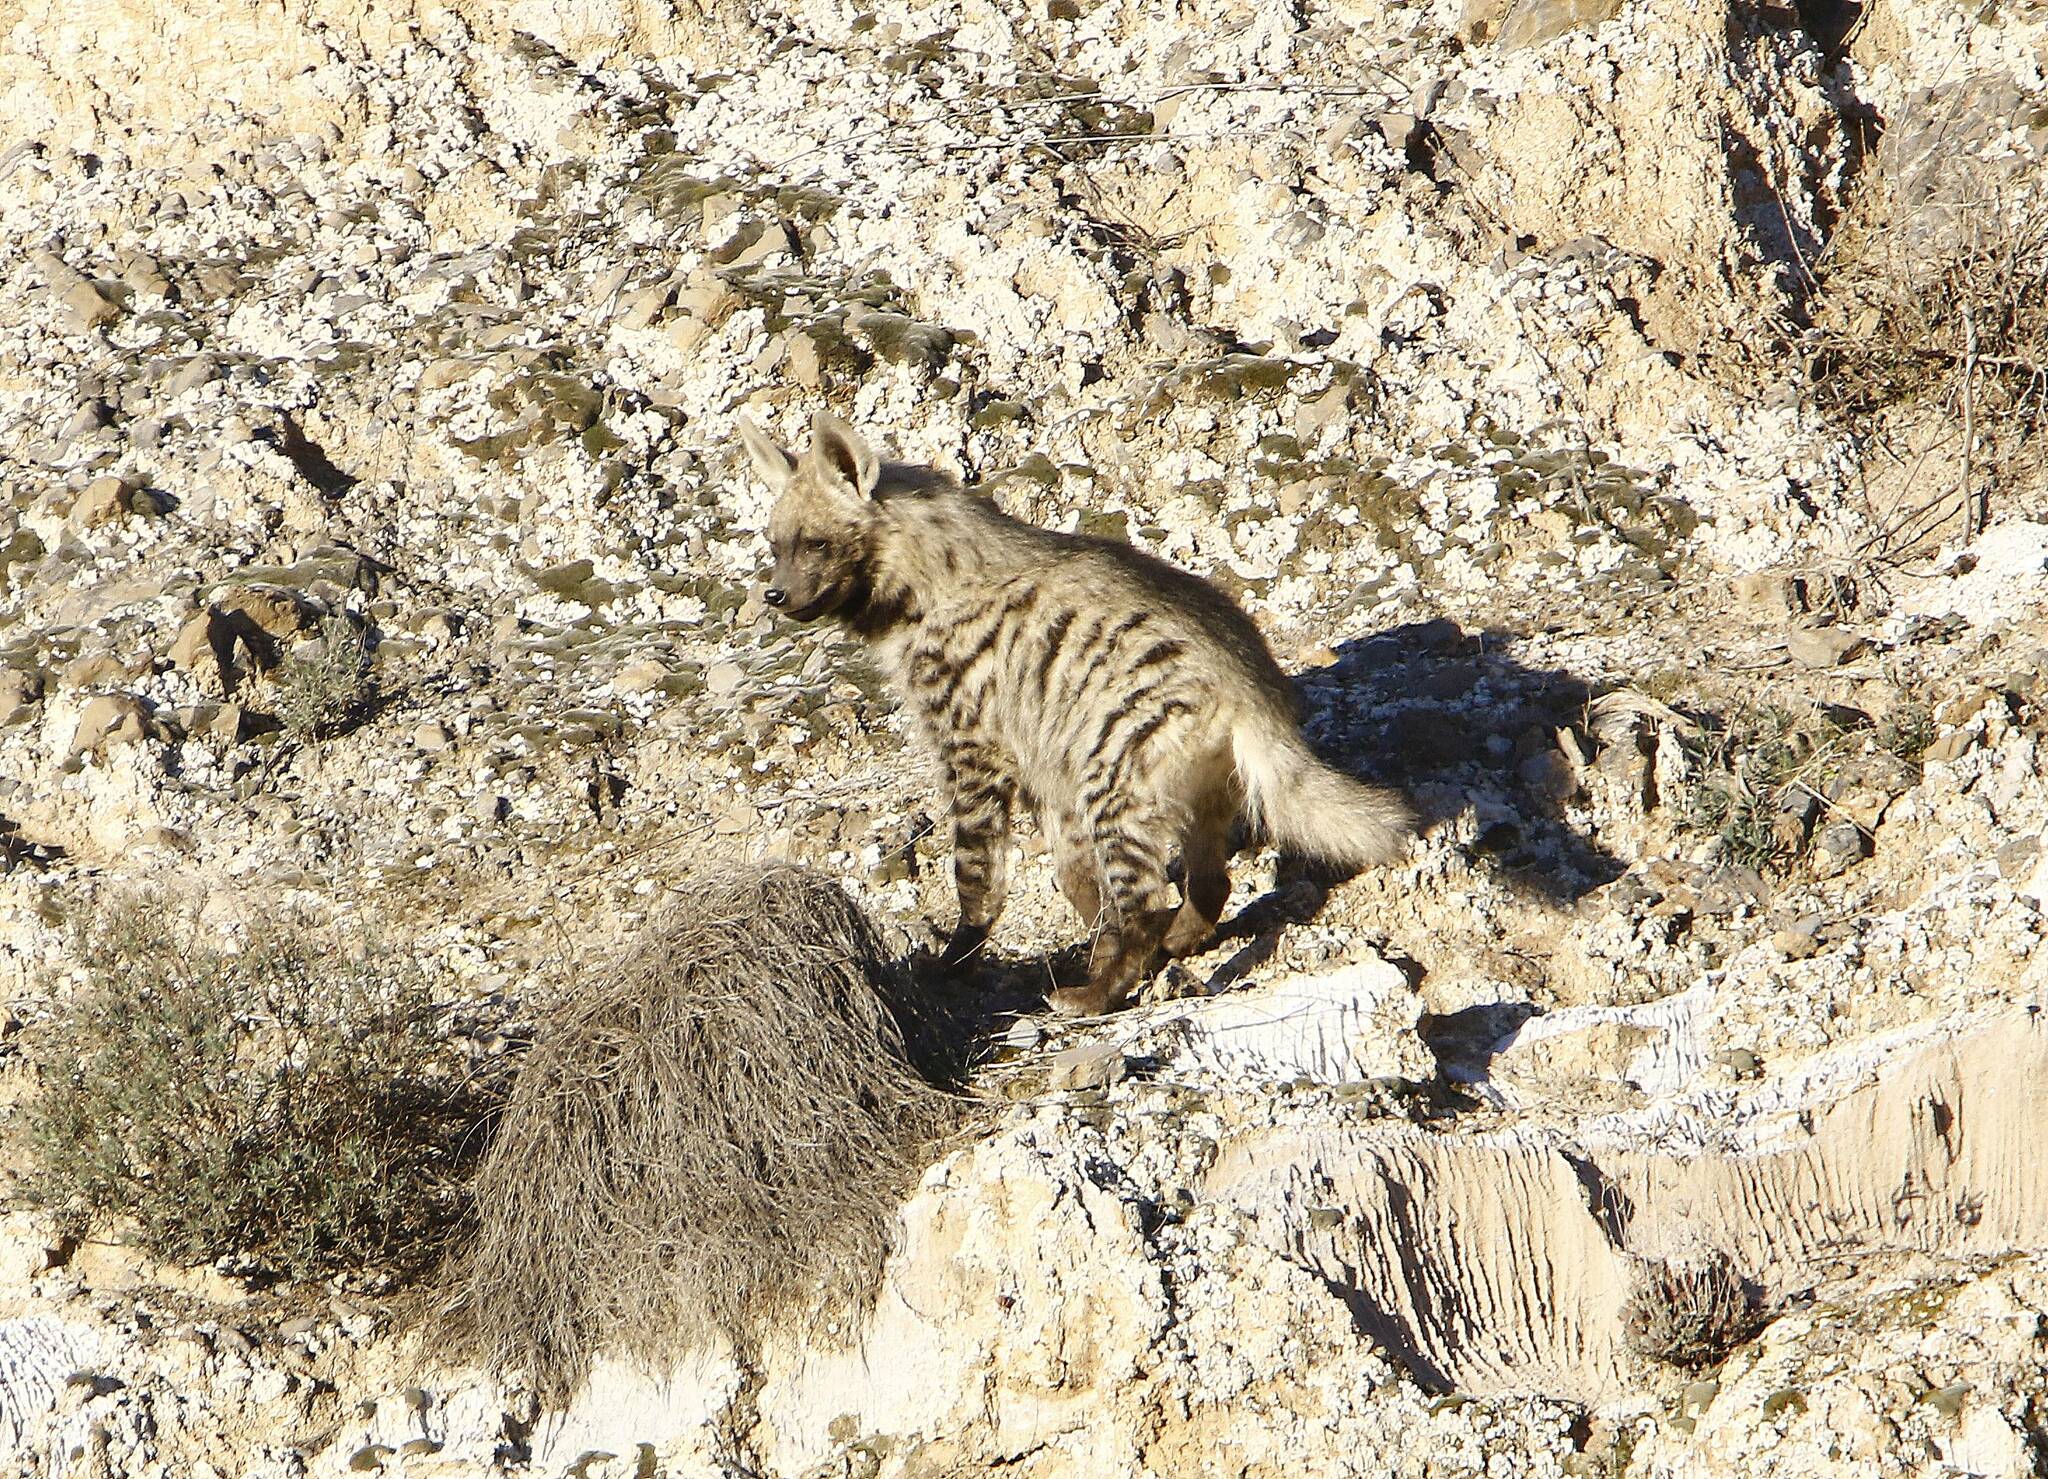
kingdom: Animalia
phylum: Chordata
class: Mammalia
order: Carnivora
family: Hyaenidae
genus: Hyaena
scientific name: Hyaena hyaena
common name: Striped hyaena
